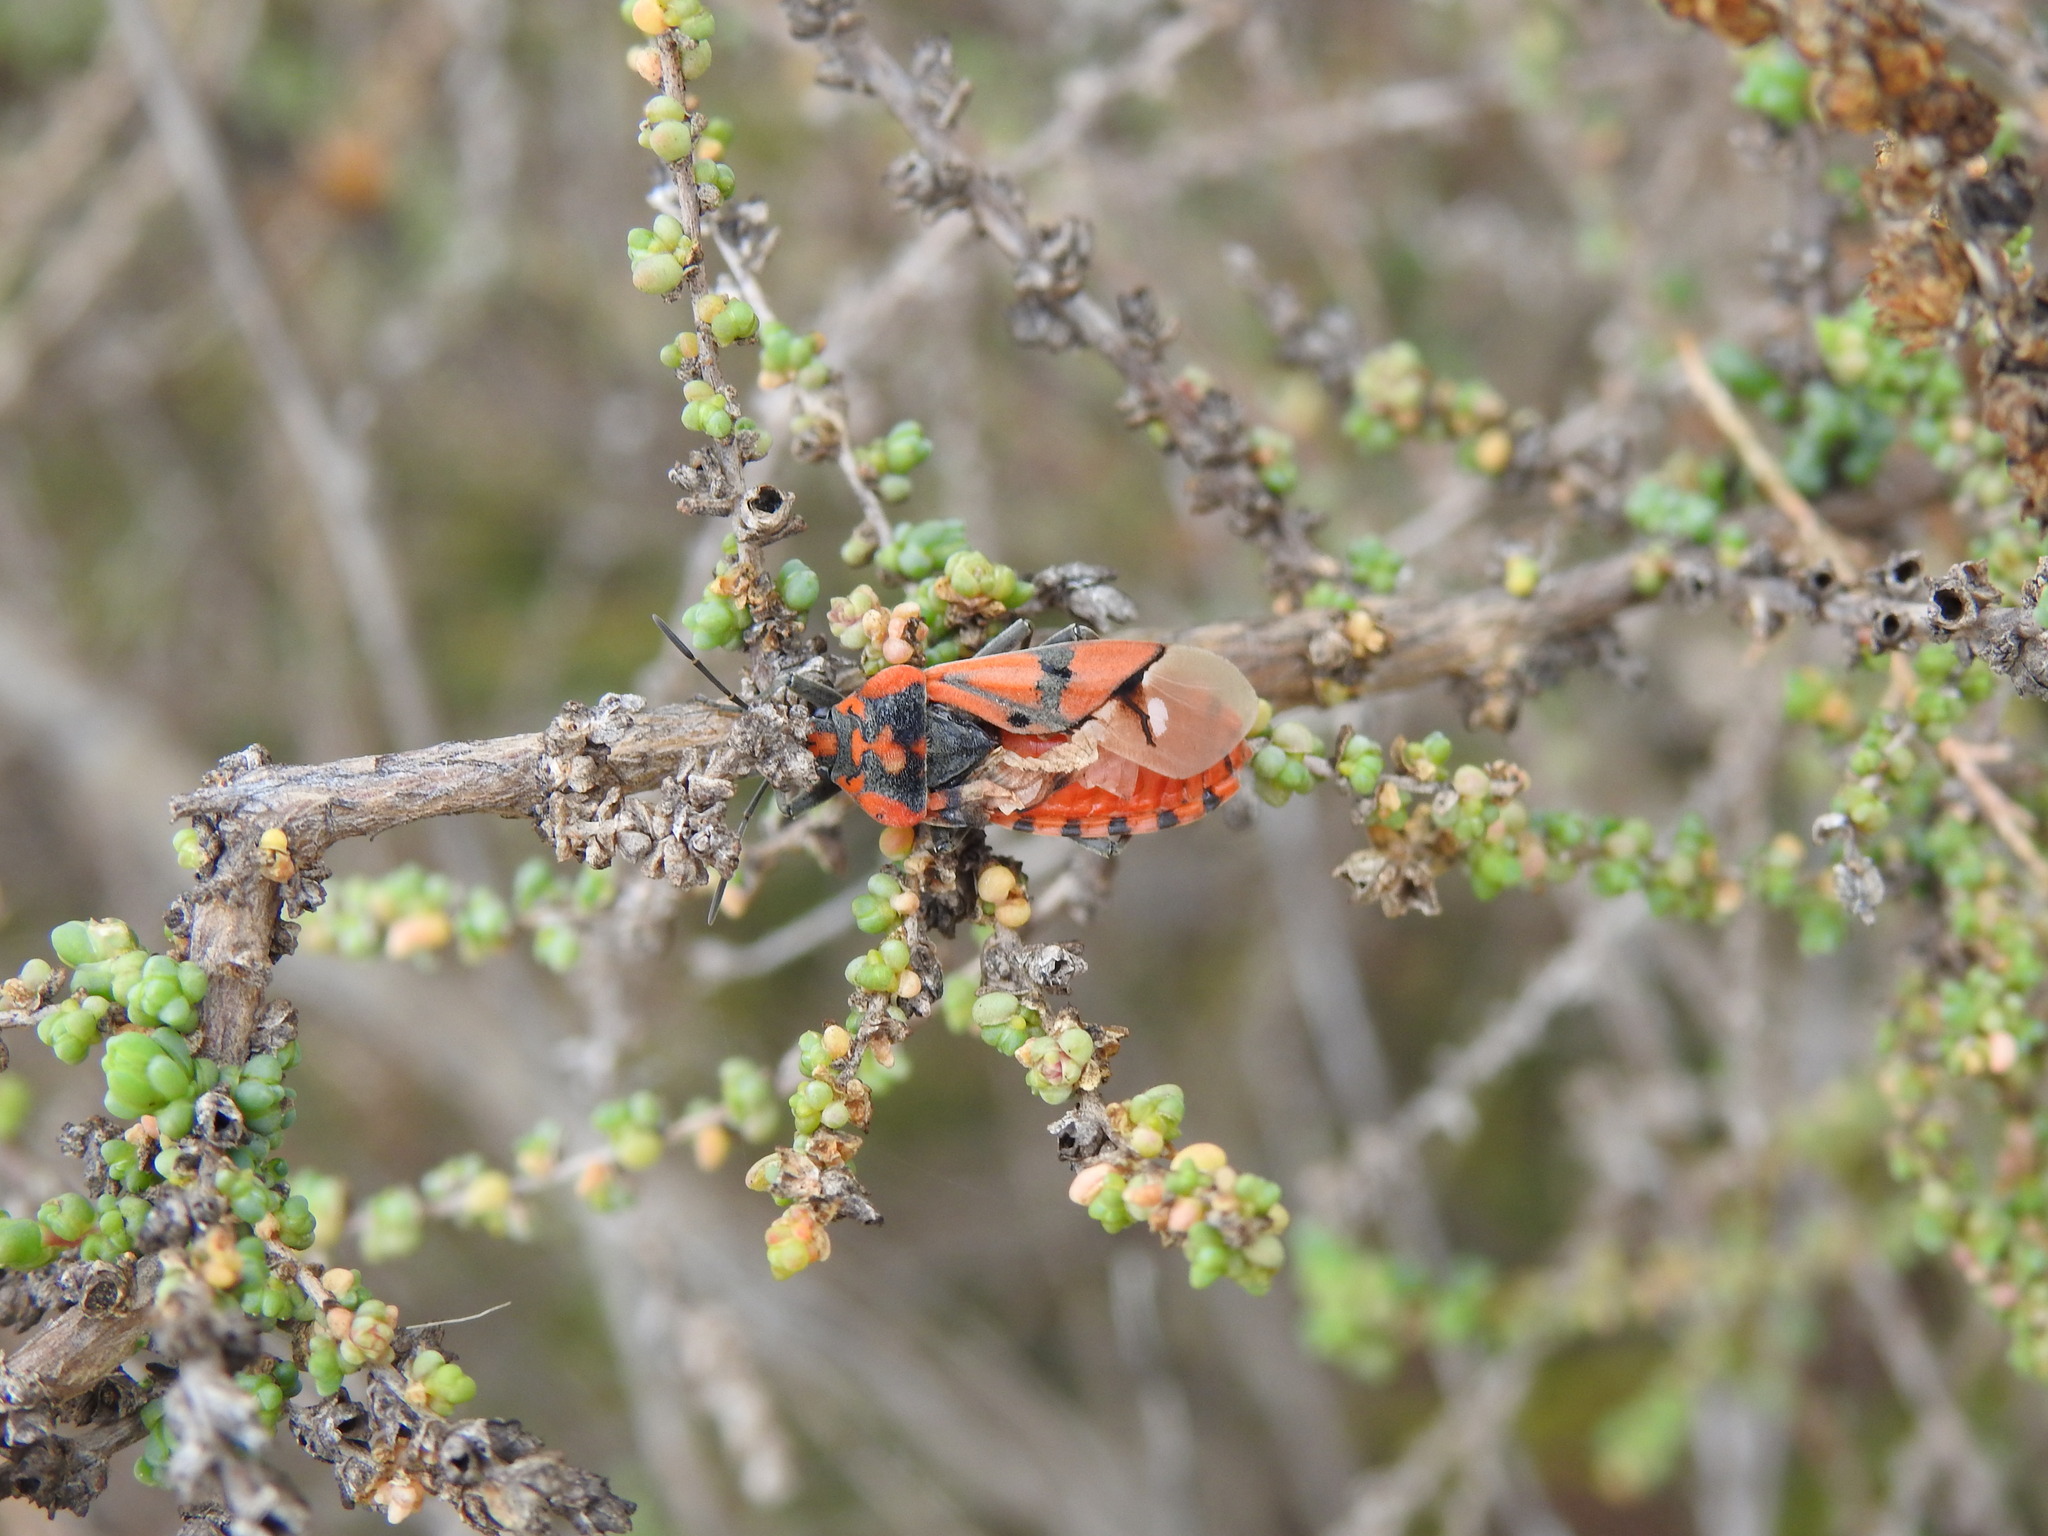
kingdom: Animalia
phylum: Arthropoda
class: Insecta
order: Hemiptera
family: Lygaeidae
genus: Spilostethus
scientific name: Spilostethus pandurus
